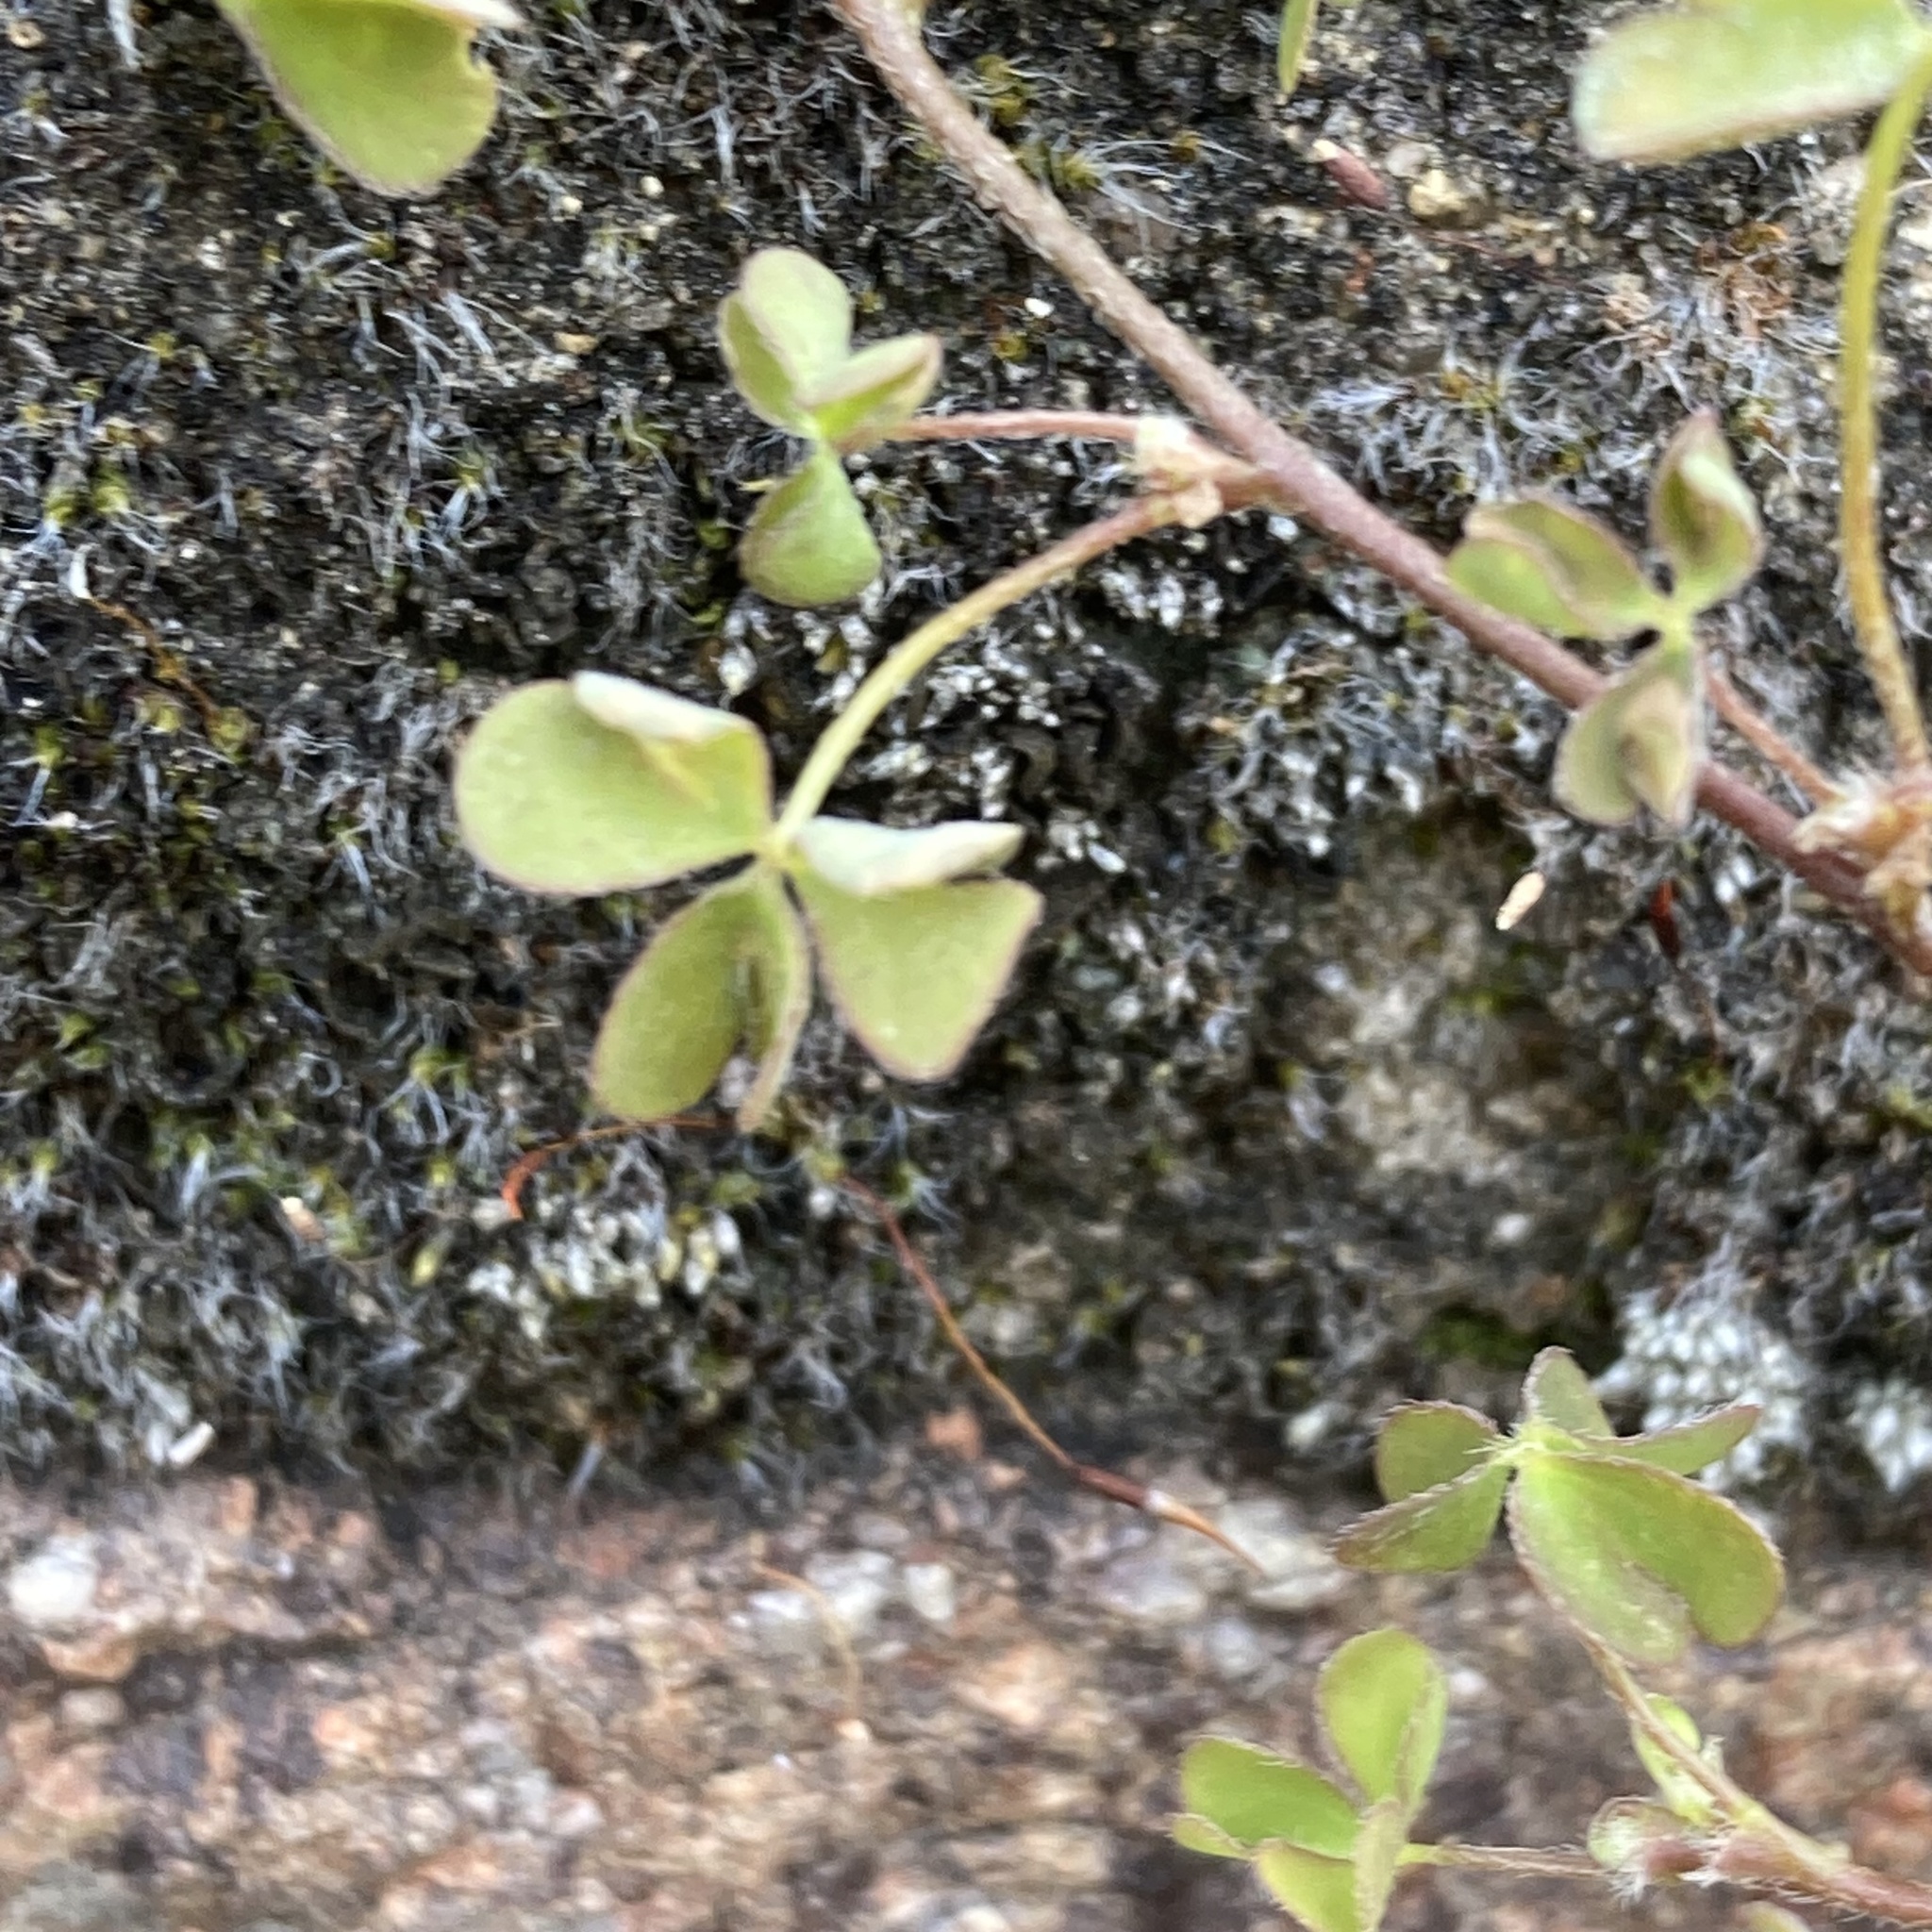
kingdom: Plantae
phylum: Tracheophyta
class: Magnoliopsida
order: Oxalidales
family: Oxalidaceae
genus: Oxalis
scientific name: Oxalis
